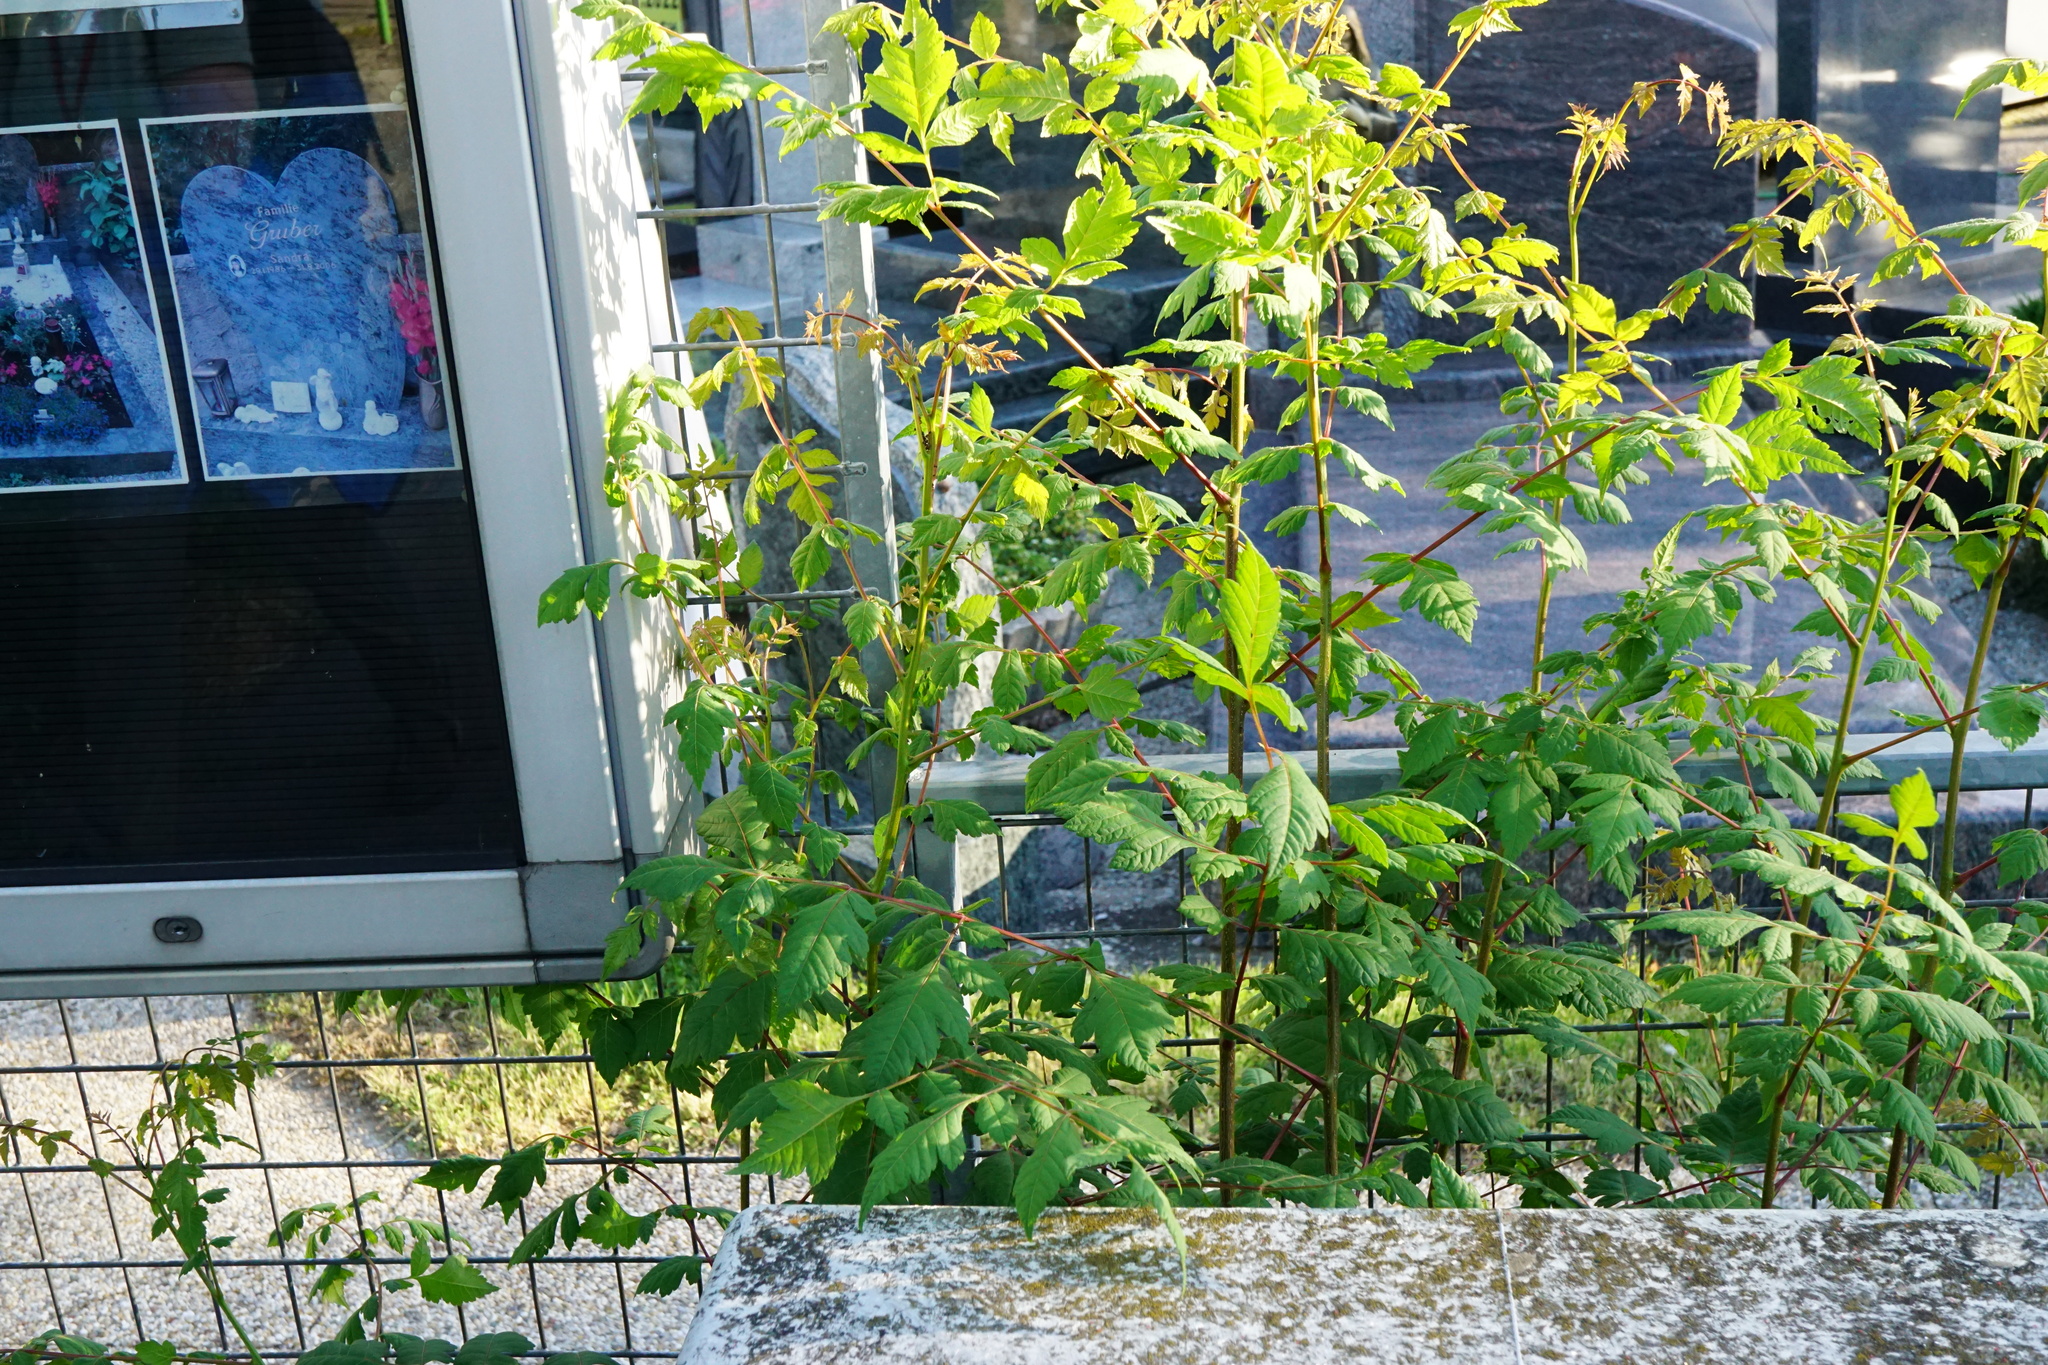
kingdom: Plantae
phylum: Tracheophyta
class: Magnoliopsida
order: Sapindales
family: Sapindaceae
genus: Koelreuteria
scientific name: Koelreuteria paniculata
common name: Pride-of-india
